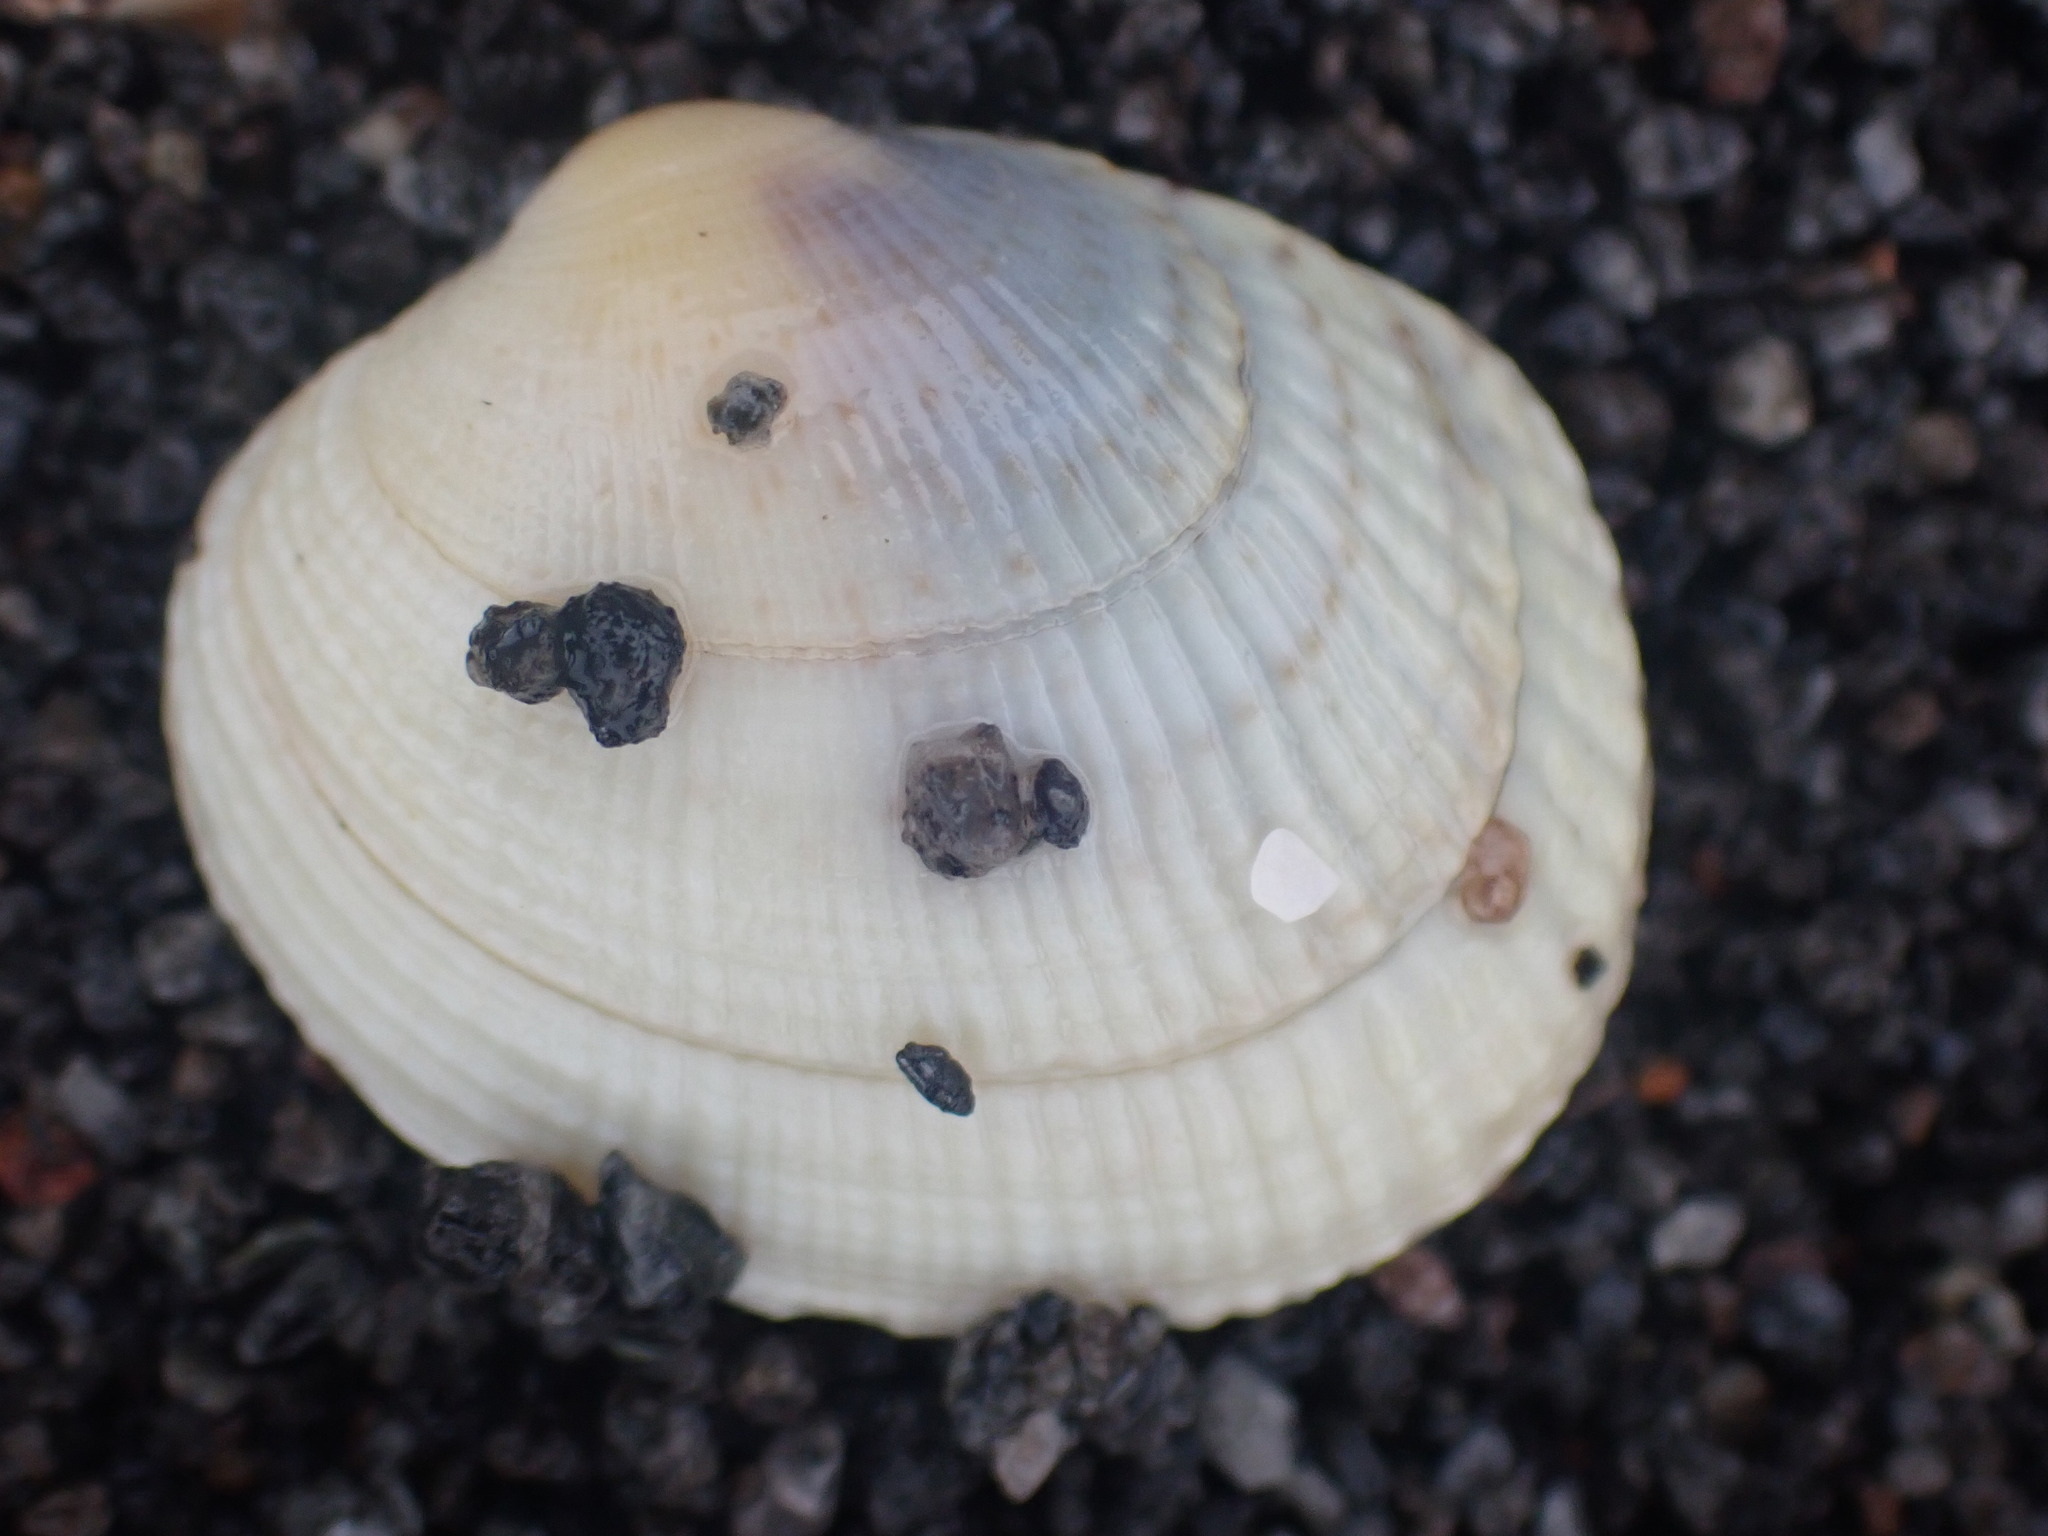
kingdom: Animalia
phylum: Mollusca
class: Bivalvia
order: Venerida
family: Veneridae
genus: Leukoma
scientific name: Leukoma crassicosta
